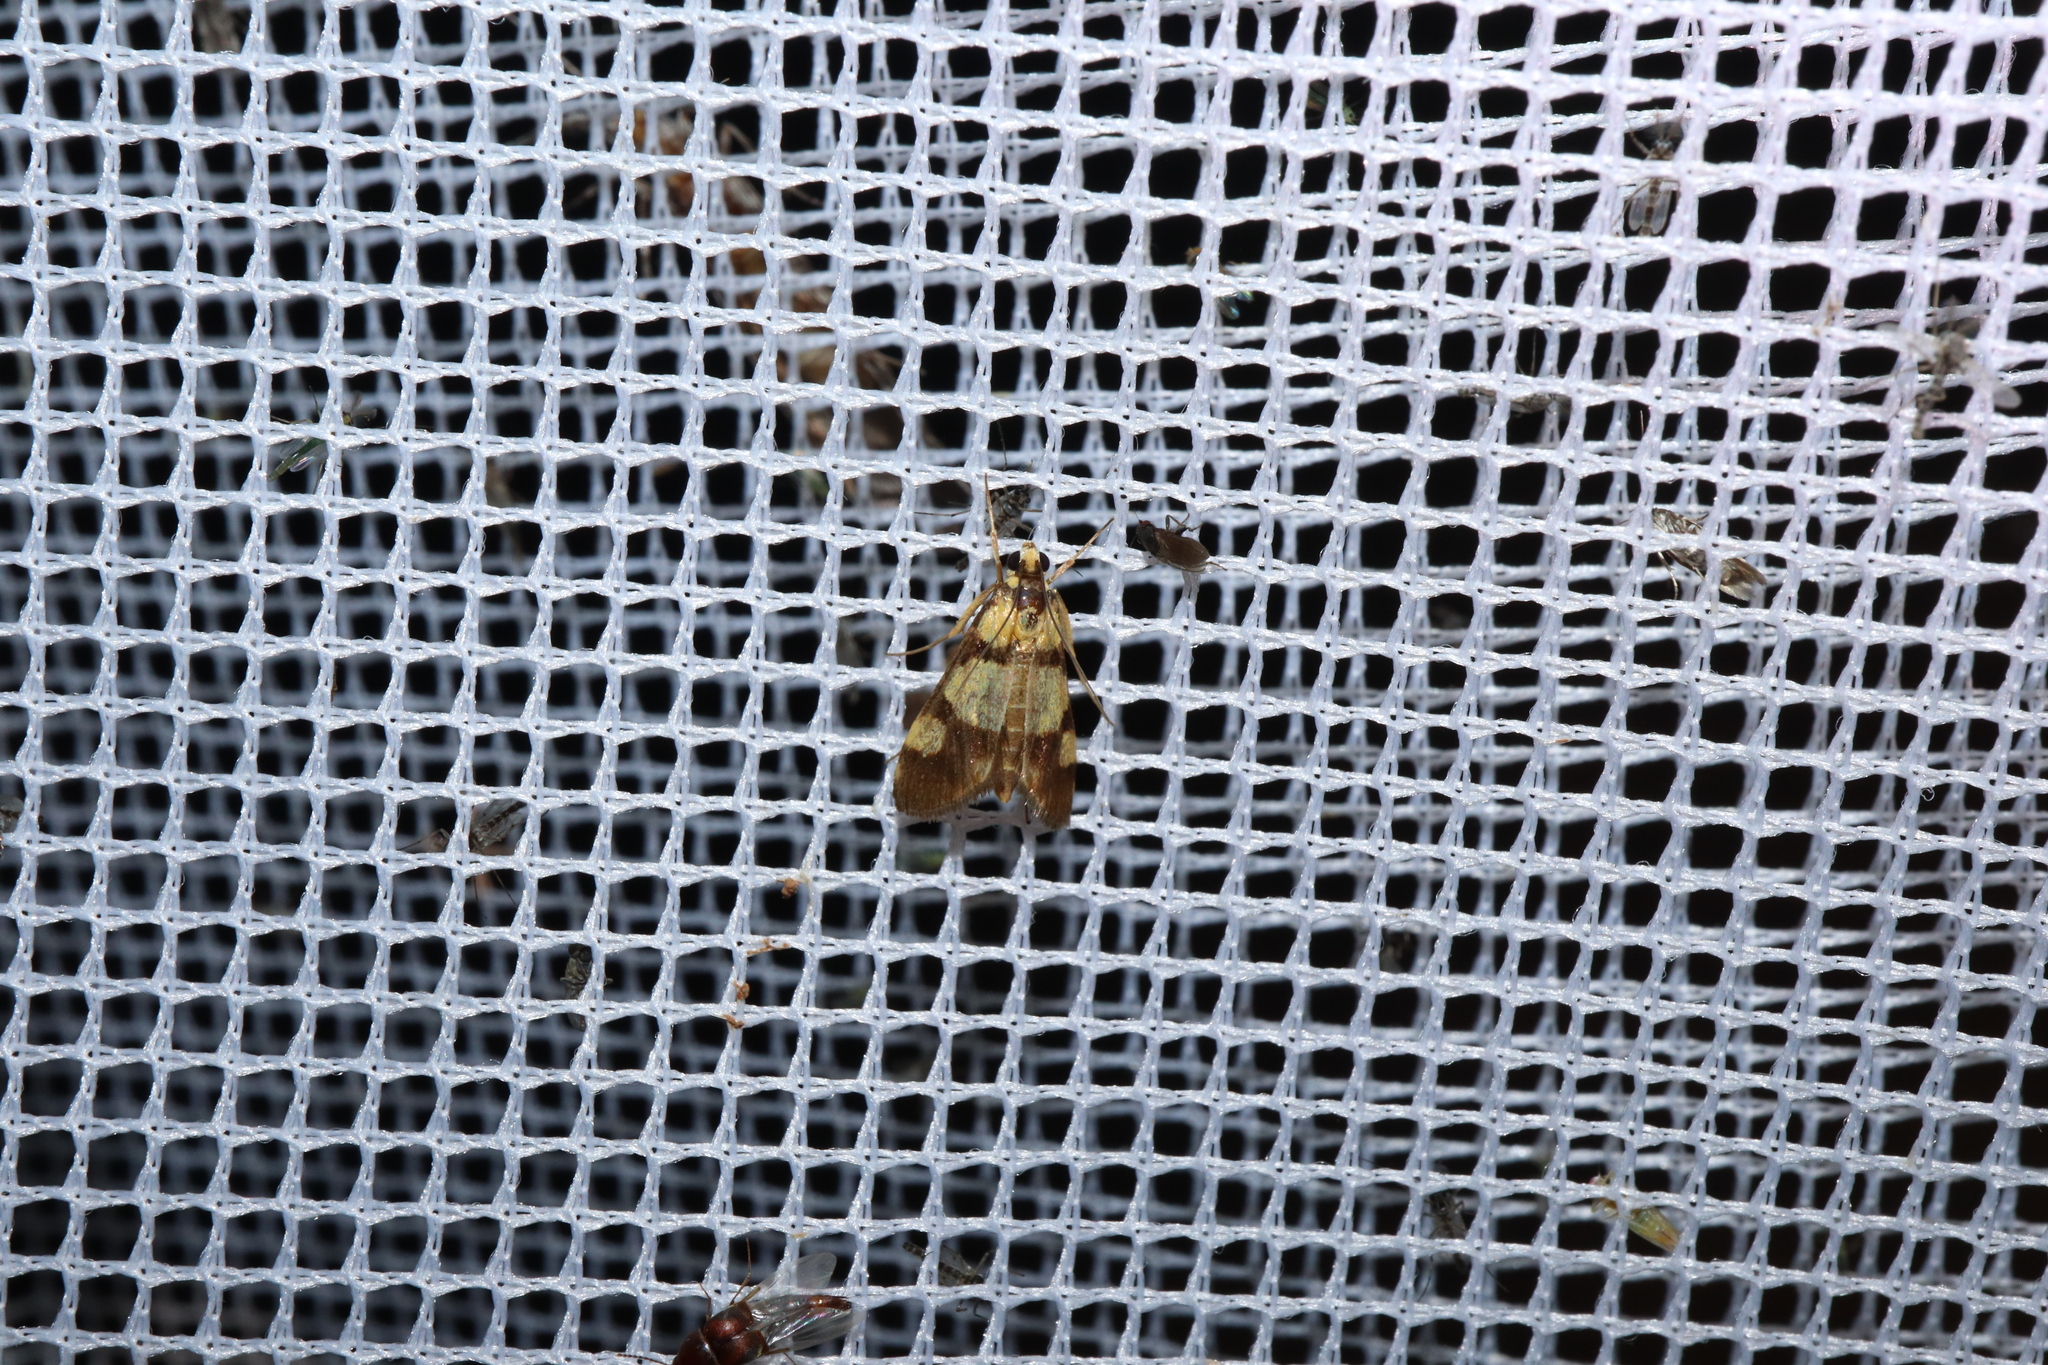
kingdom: Animalia
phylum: Arthropoda
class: Insecta
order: Lepidoptera
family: Crambidae
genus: Deuterarcha
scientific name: Deuterarcha xanthomela
